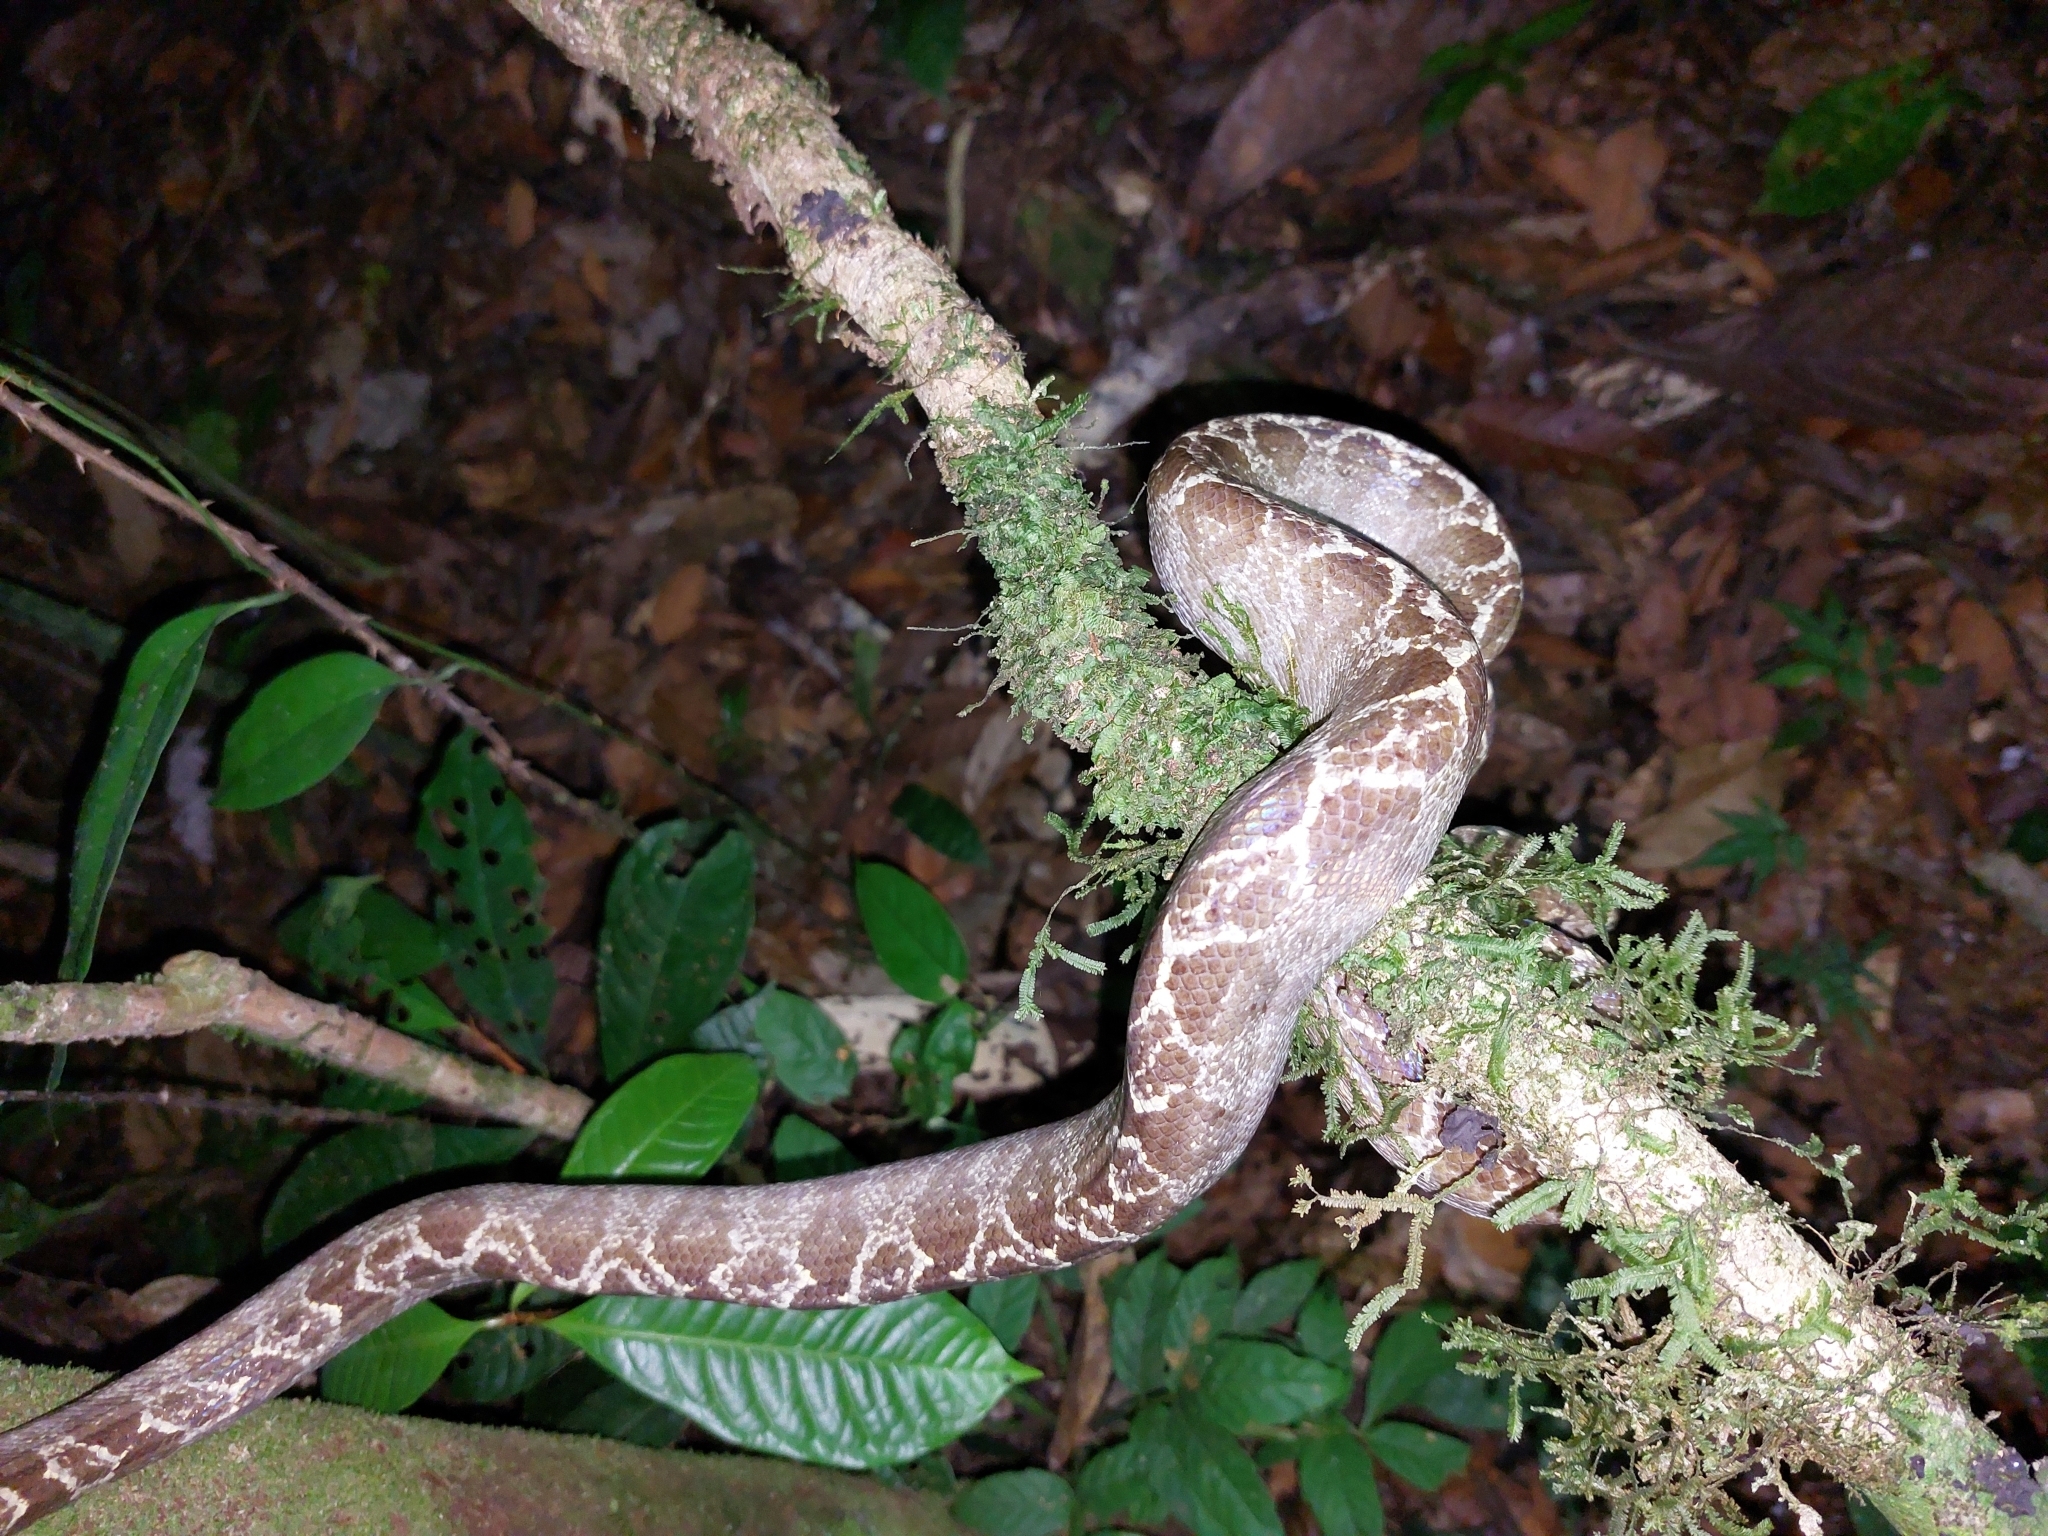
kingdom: Animalia
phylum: Chordata
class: Squamata
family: Boidae
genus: Corallus
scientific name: Corallus hortulana
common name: Garden tree boa
